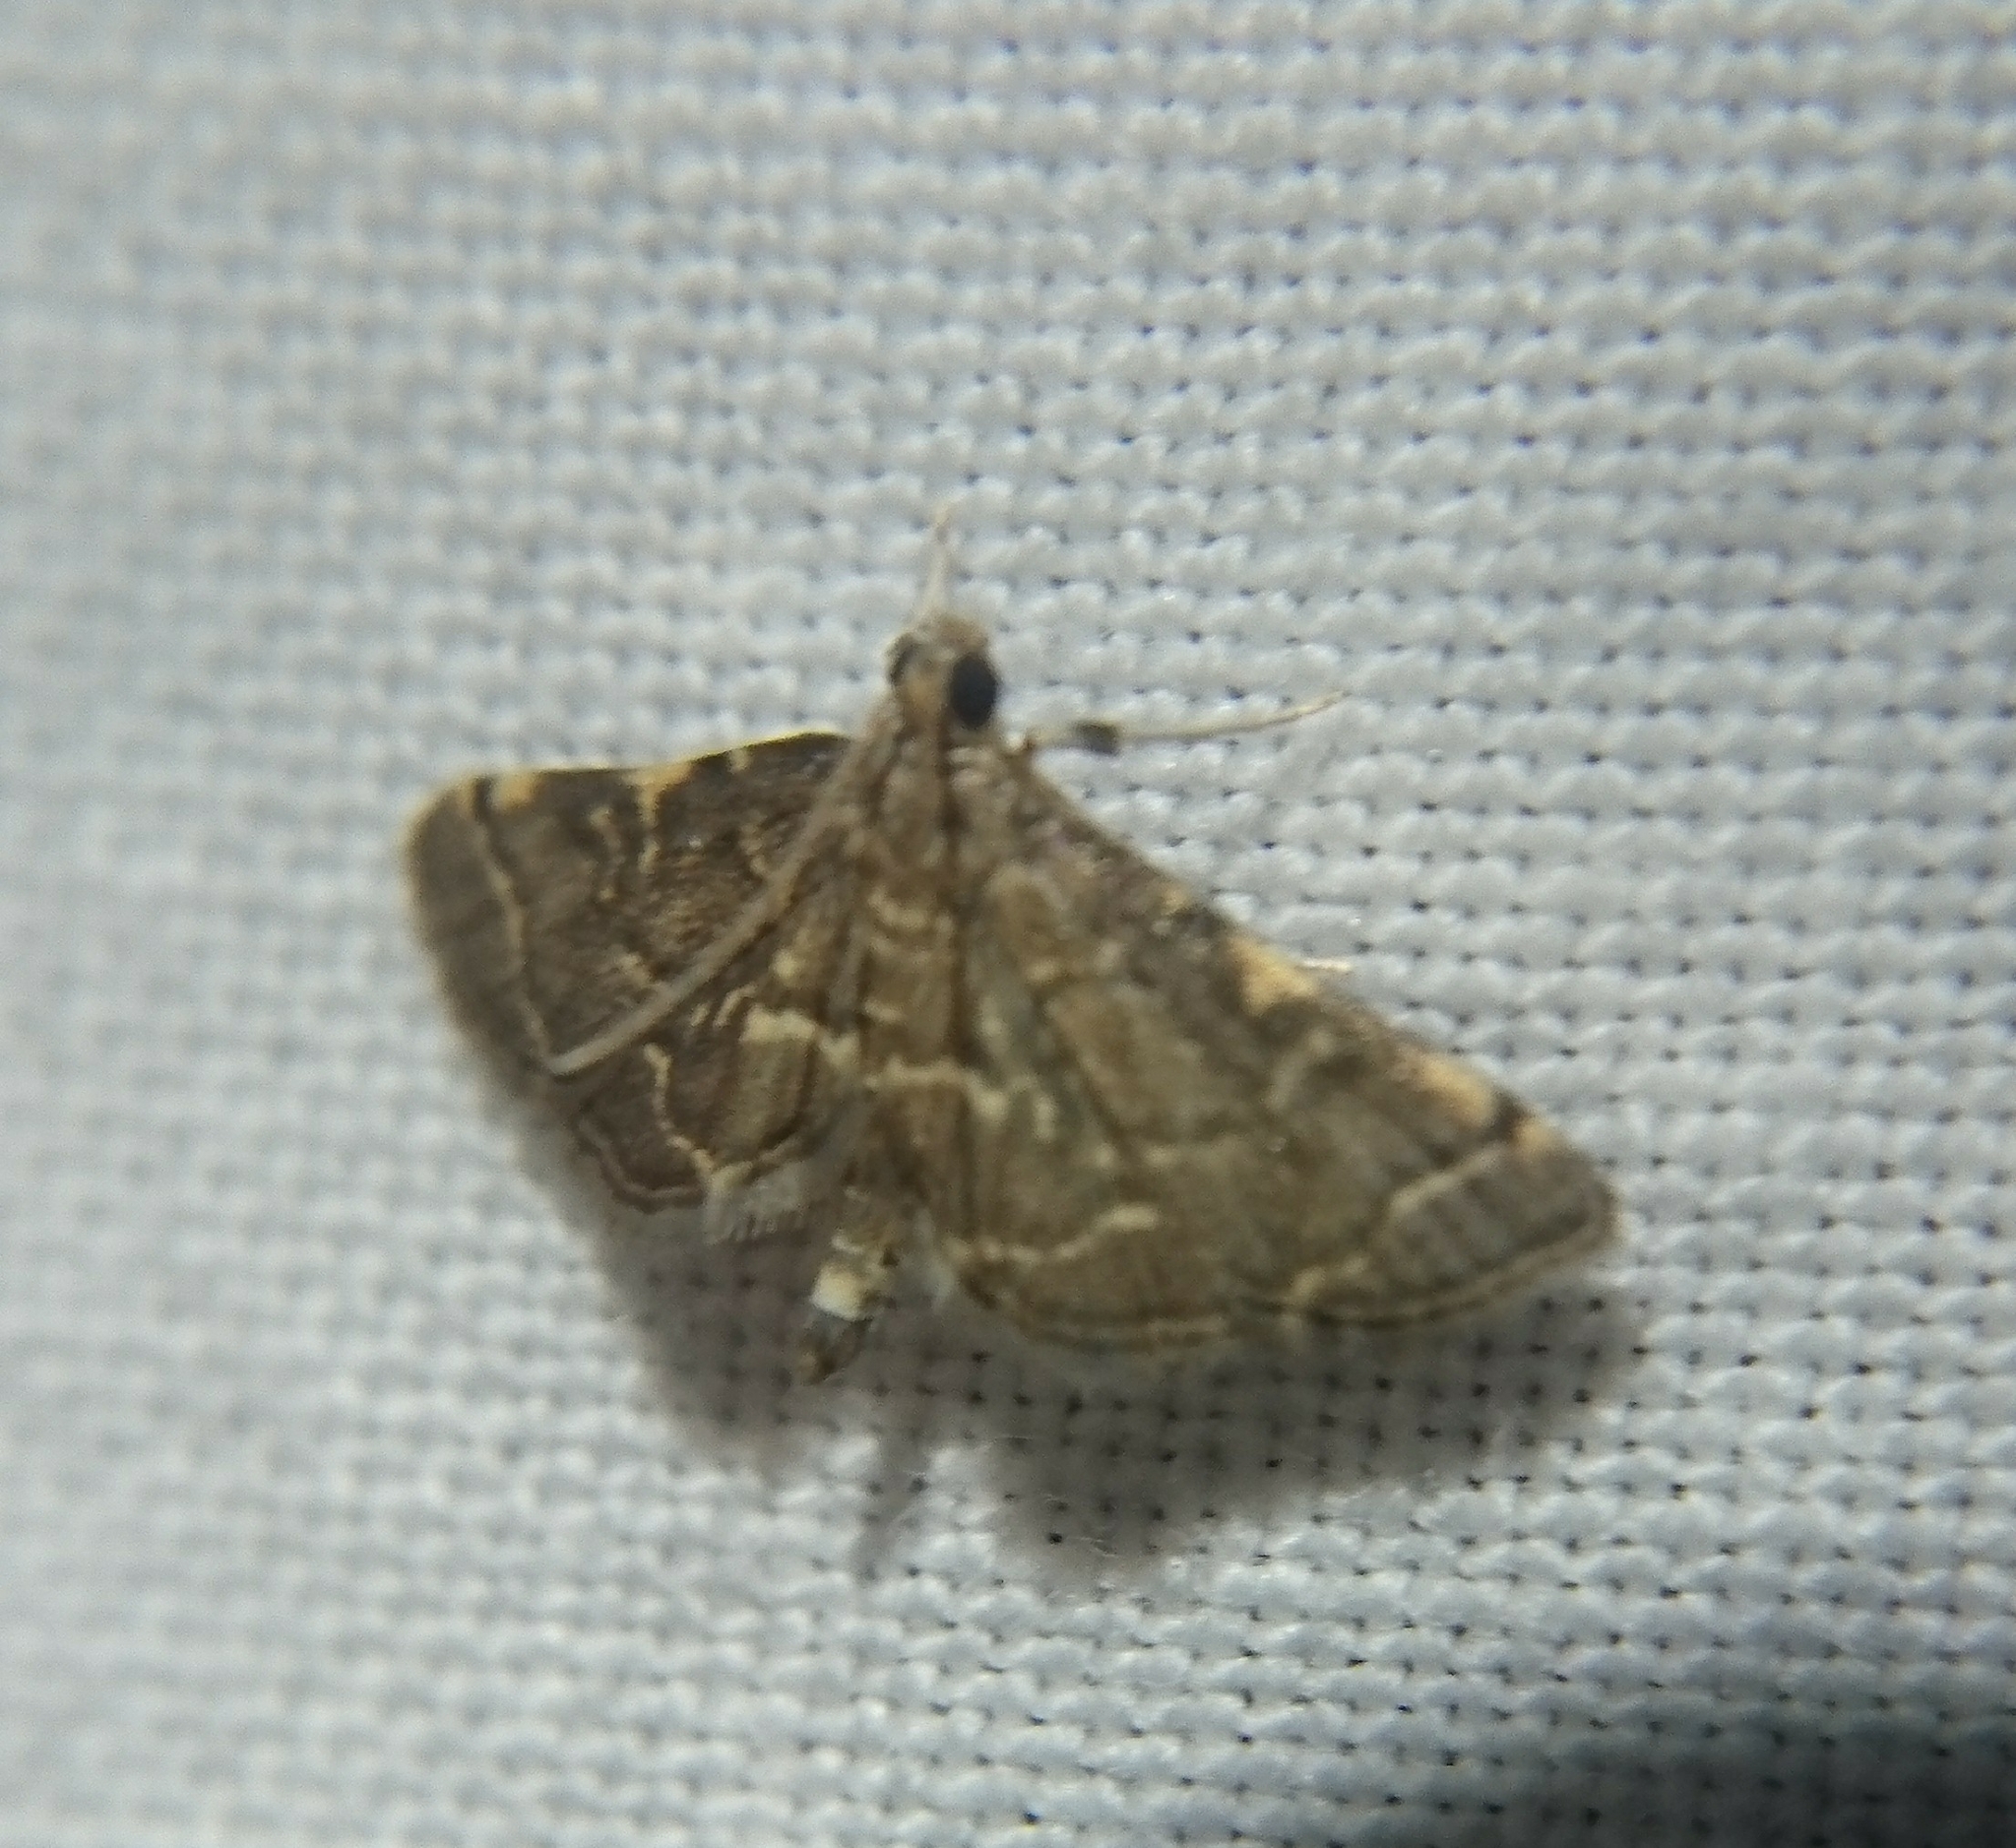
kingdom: Animalia
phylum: Arthropoda
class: Insecta
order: Lepidoptera
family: Crambidae
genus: Anageshna
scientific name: Anageshna primordialis
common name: Yellow-spotted webworm moth
